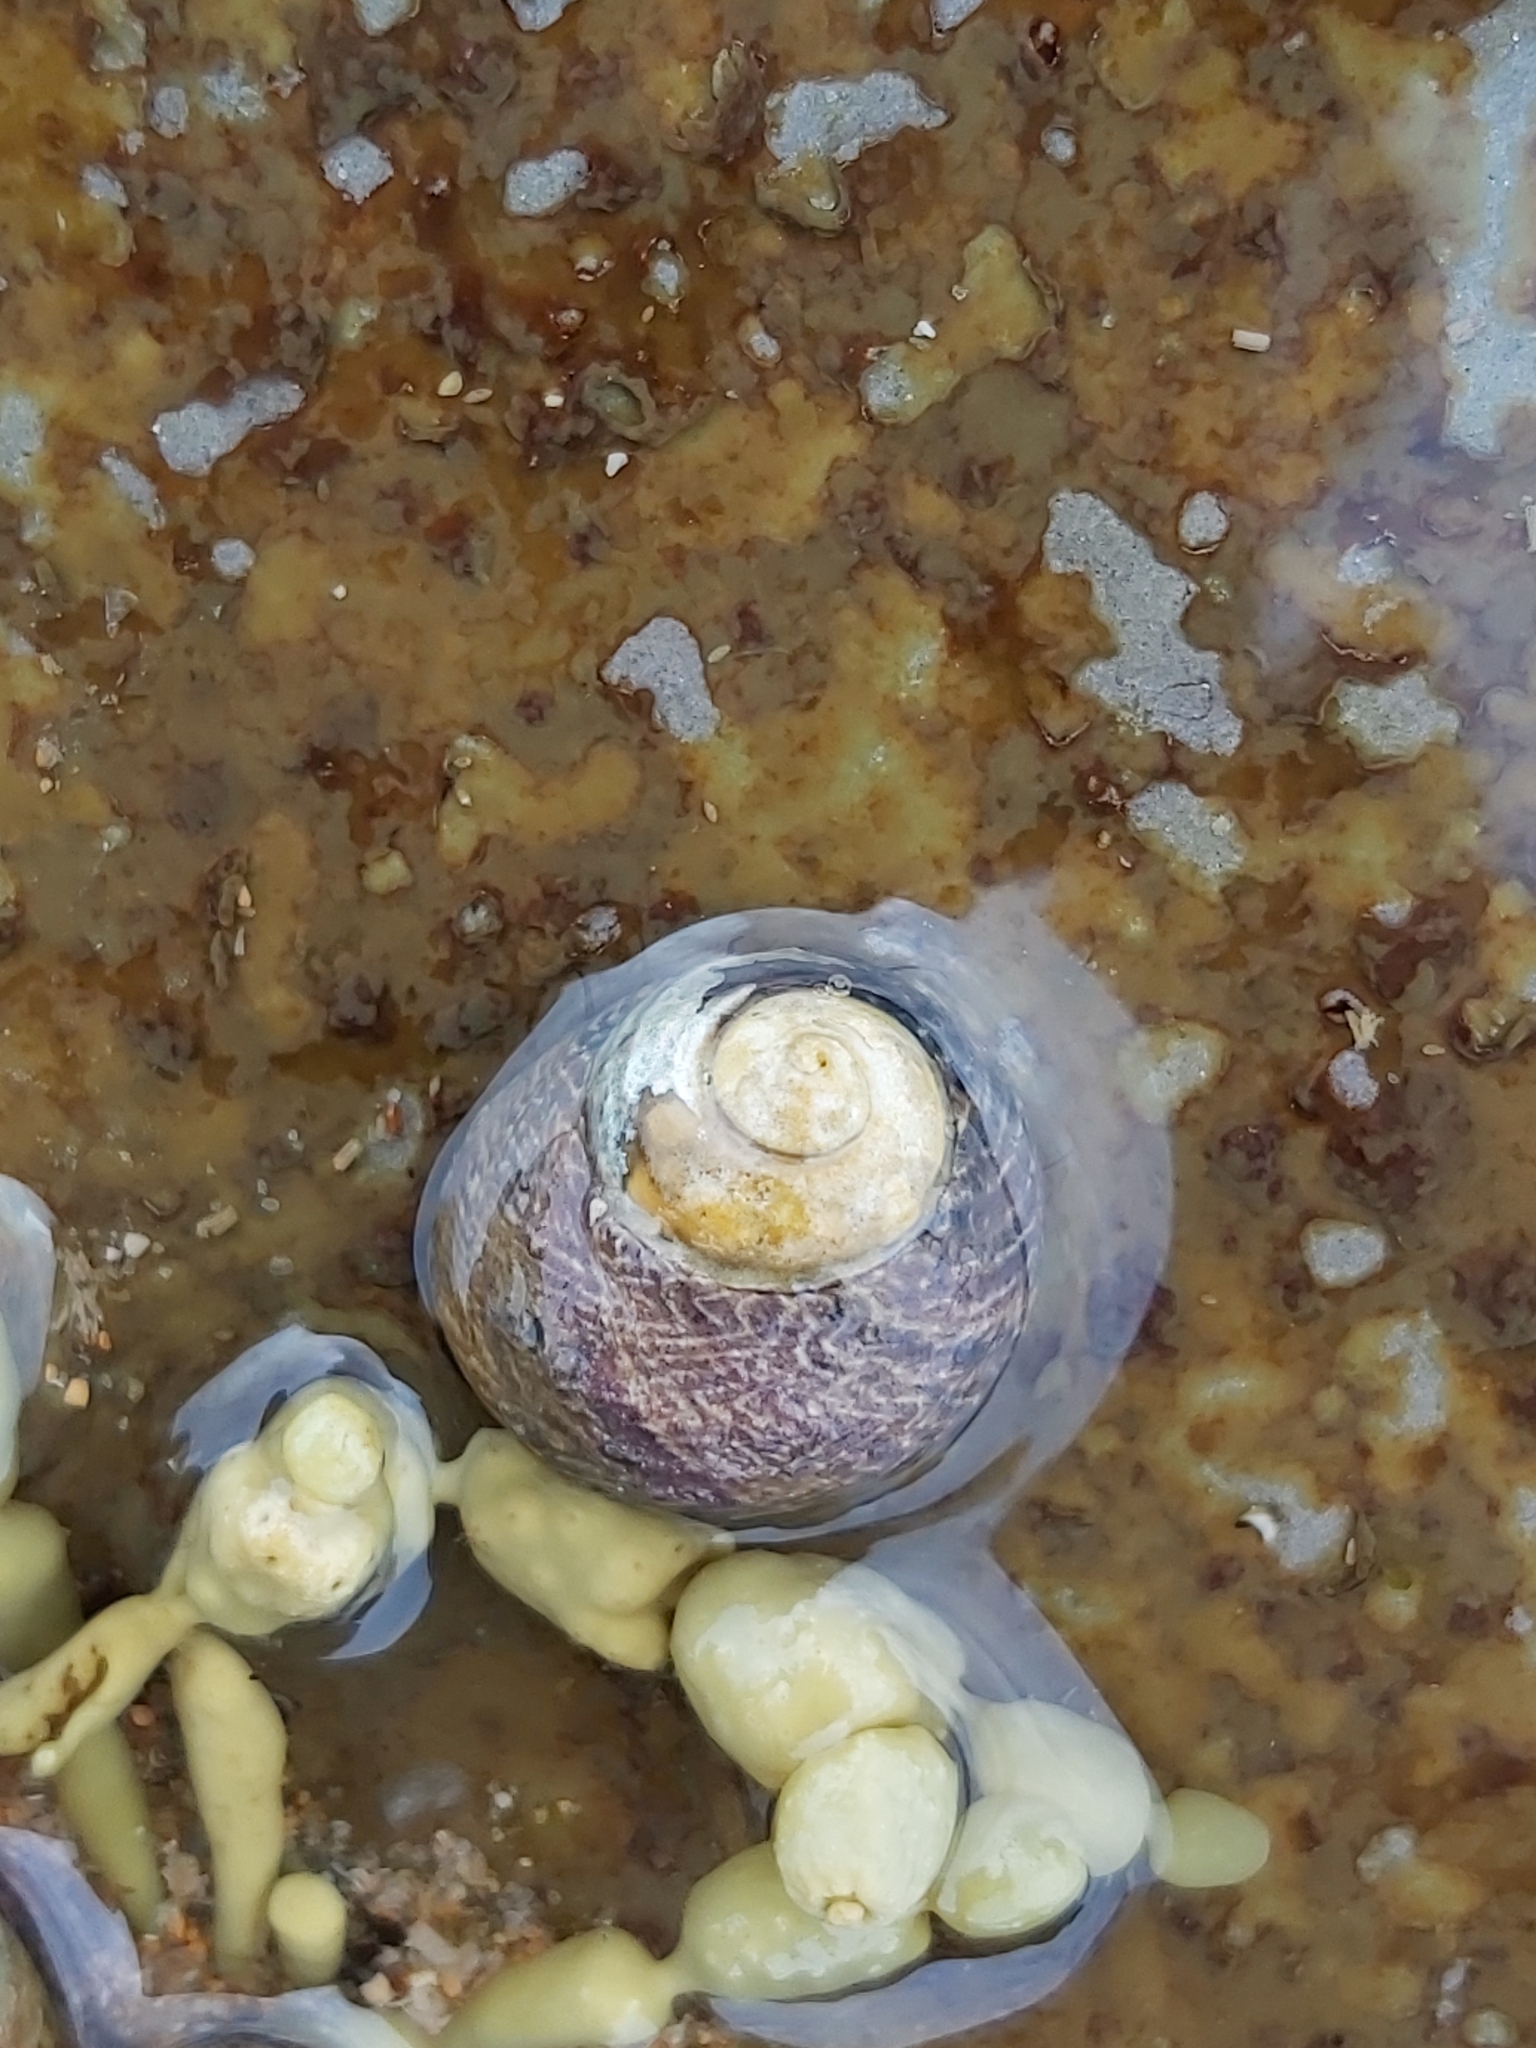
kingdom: Animalia
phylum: Mollusca
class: Gastropoda
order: Trochida
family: Trochidae
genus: Austrocochlea
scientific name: Austrocochlea porcata
